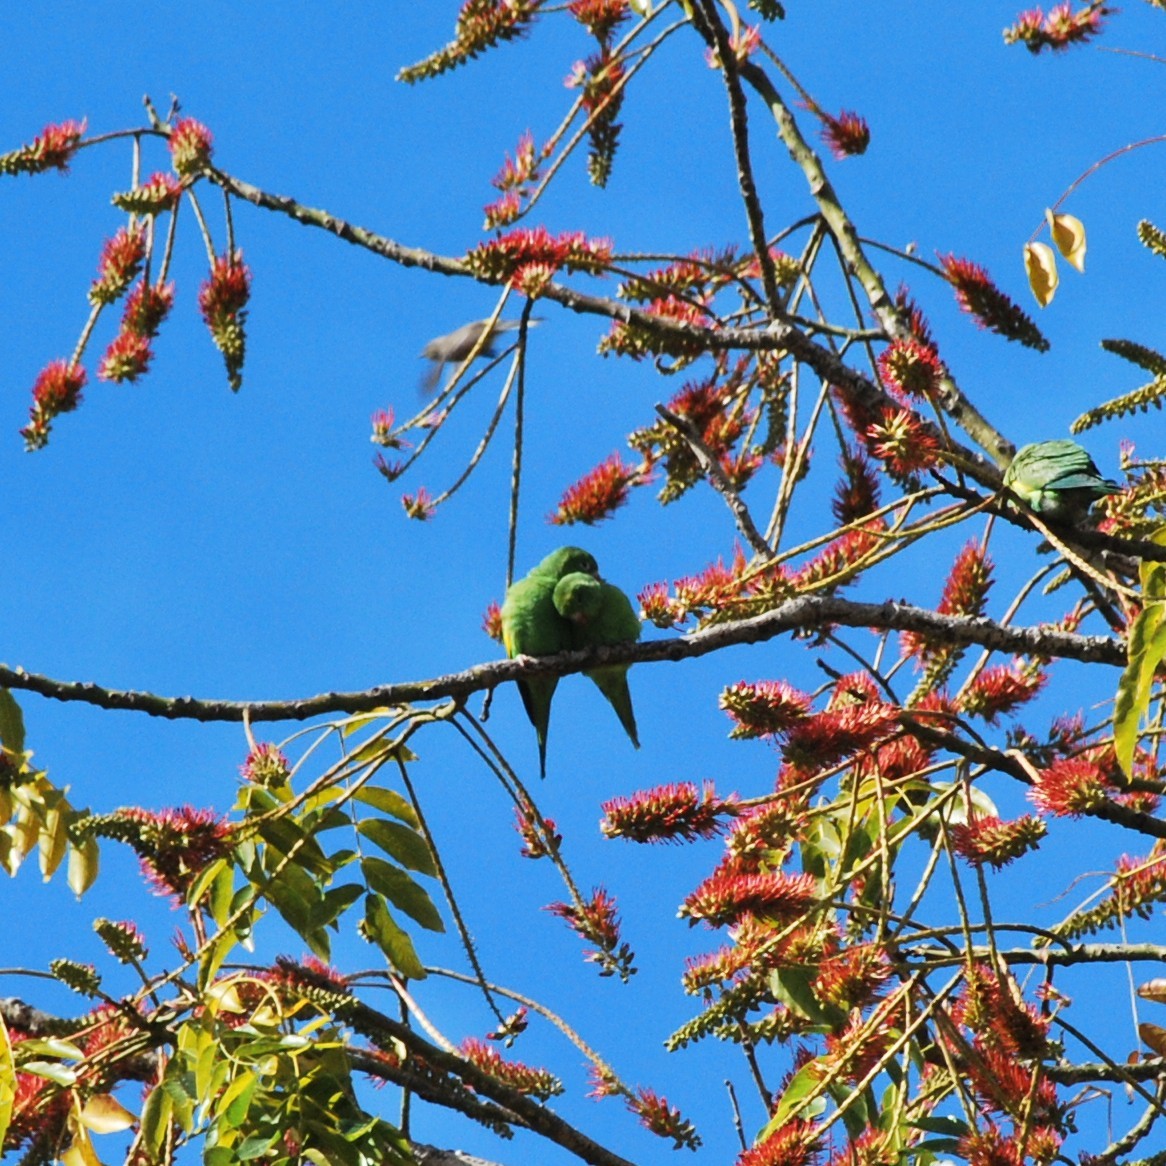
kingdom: Animalia
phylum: Chordata
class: Aves
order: Psittaciformes
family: Psittacidae
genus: Brotogeris
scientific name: Brotogeris chiriri
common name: Yellow-chevroned parakeet
